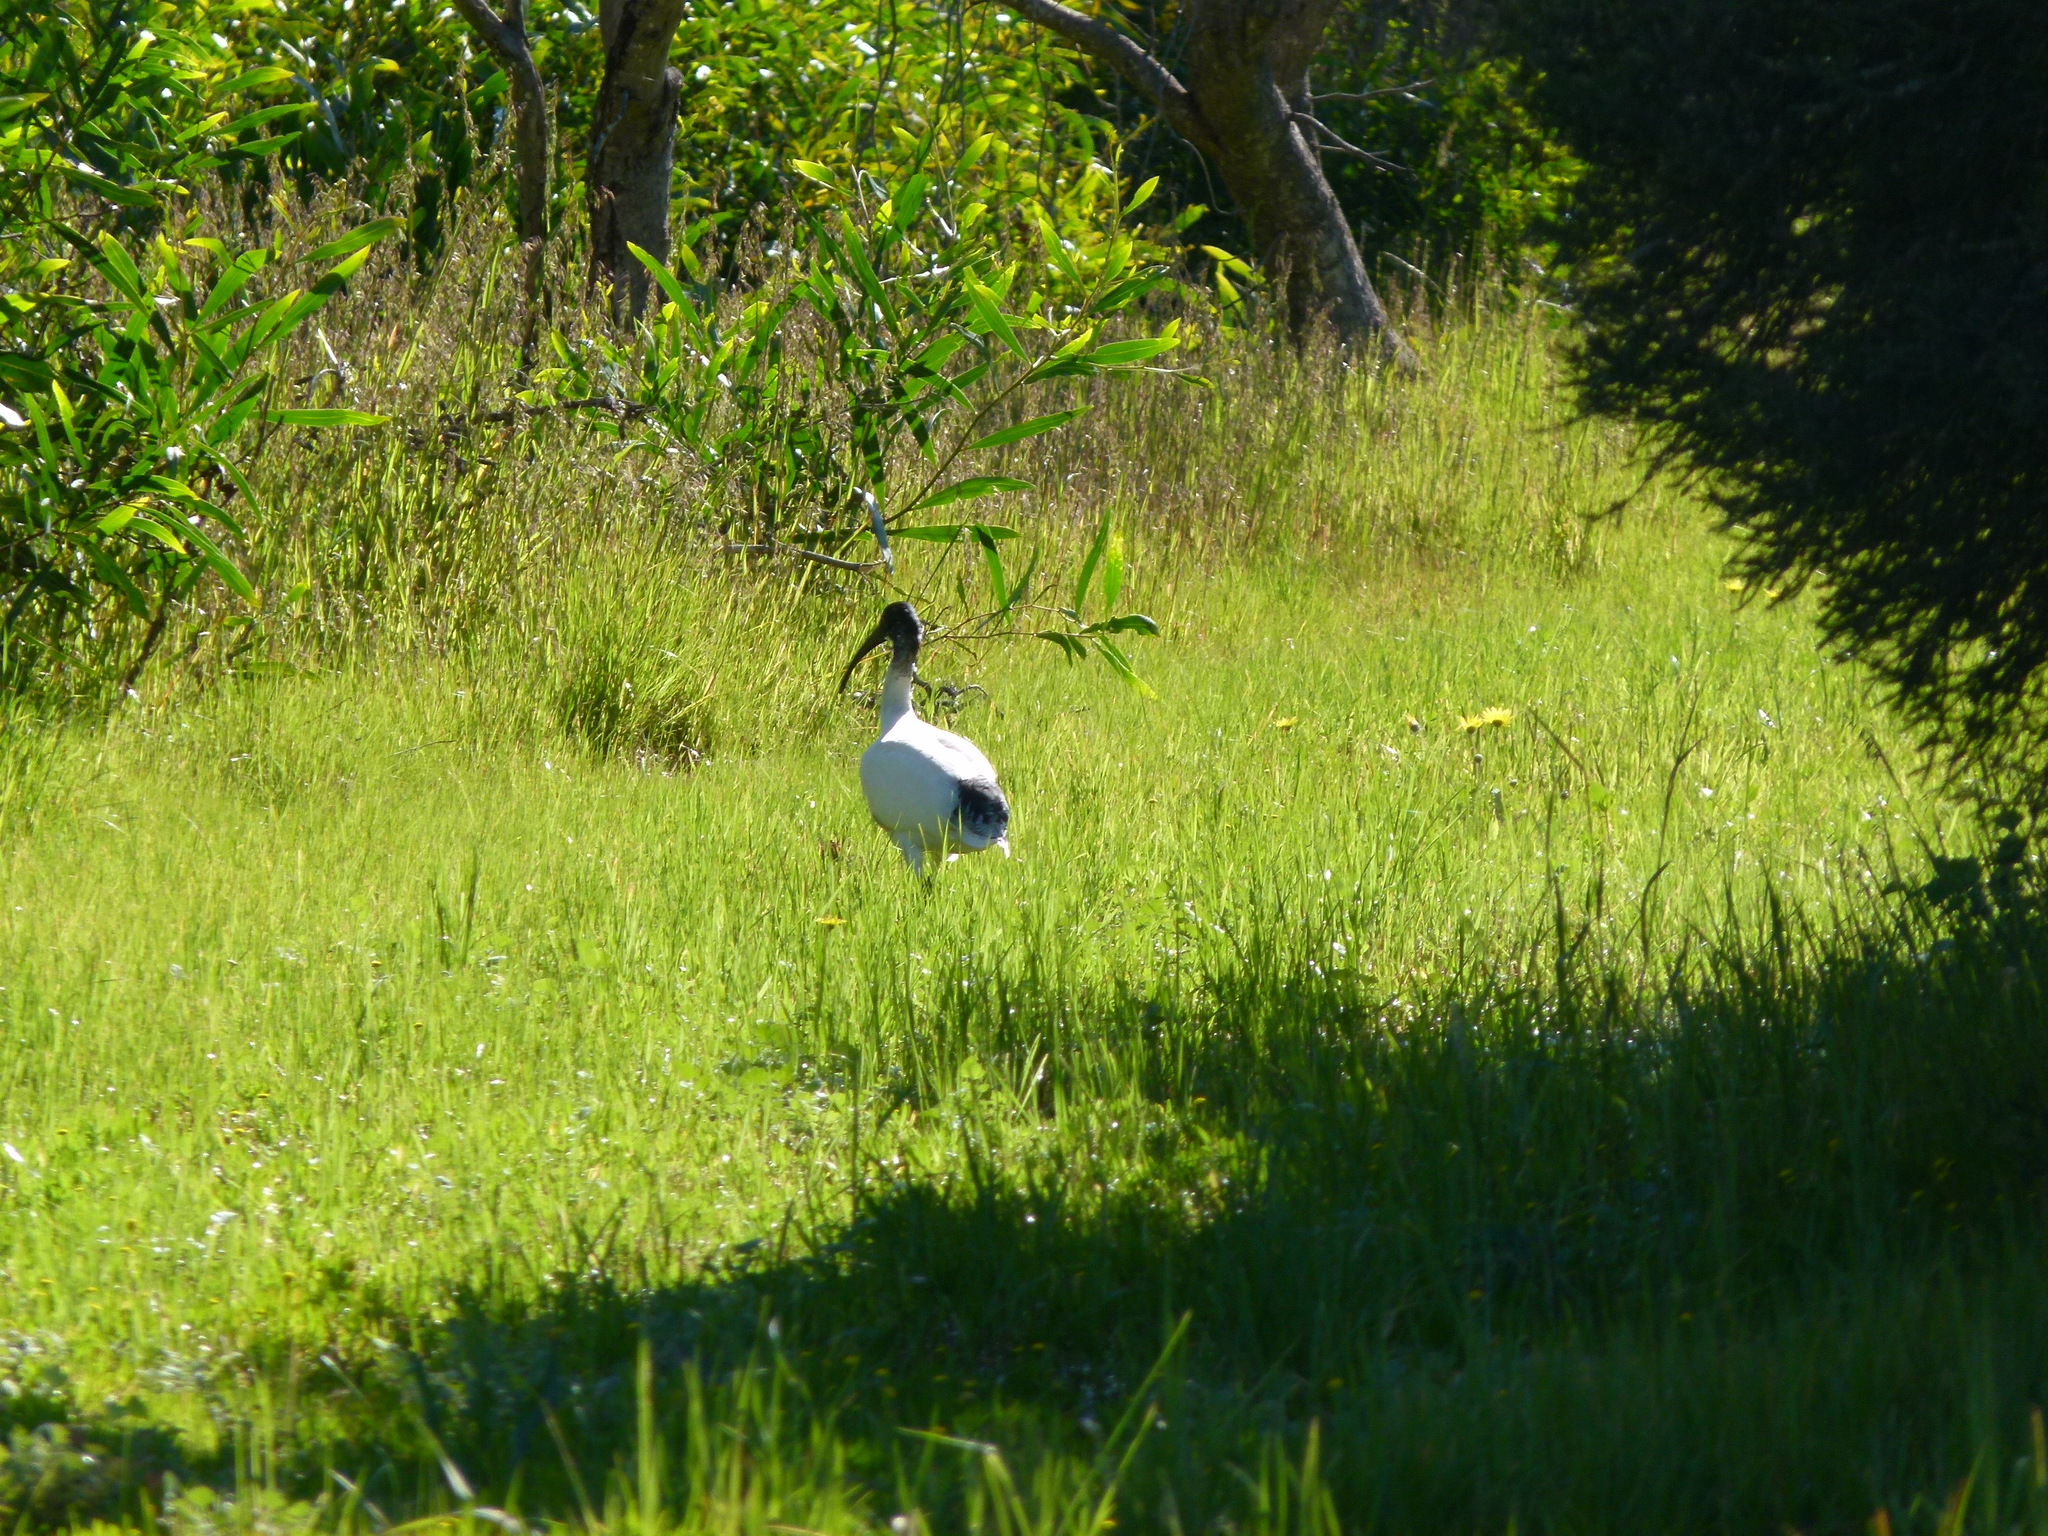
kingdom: Animalia
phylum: Chordata
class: Aves
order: Pelecaniformes
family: Threskiornithidae
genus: Threskiornis
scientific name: Threskiornis molucca
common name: Australian white ibis
